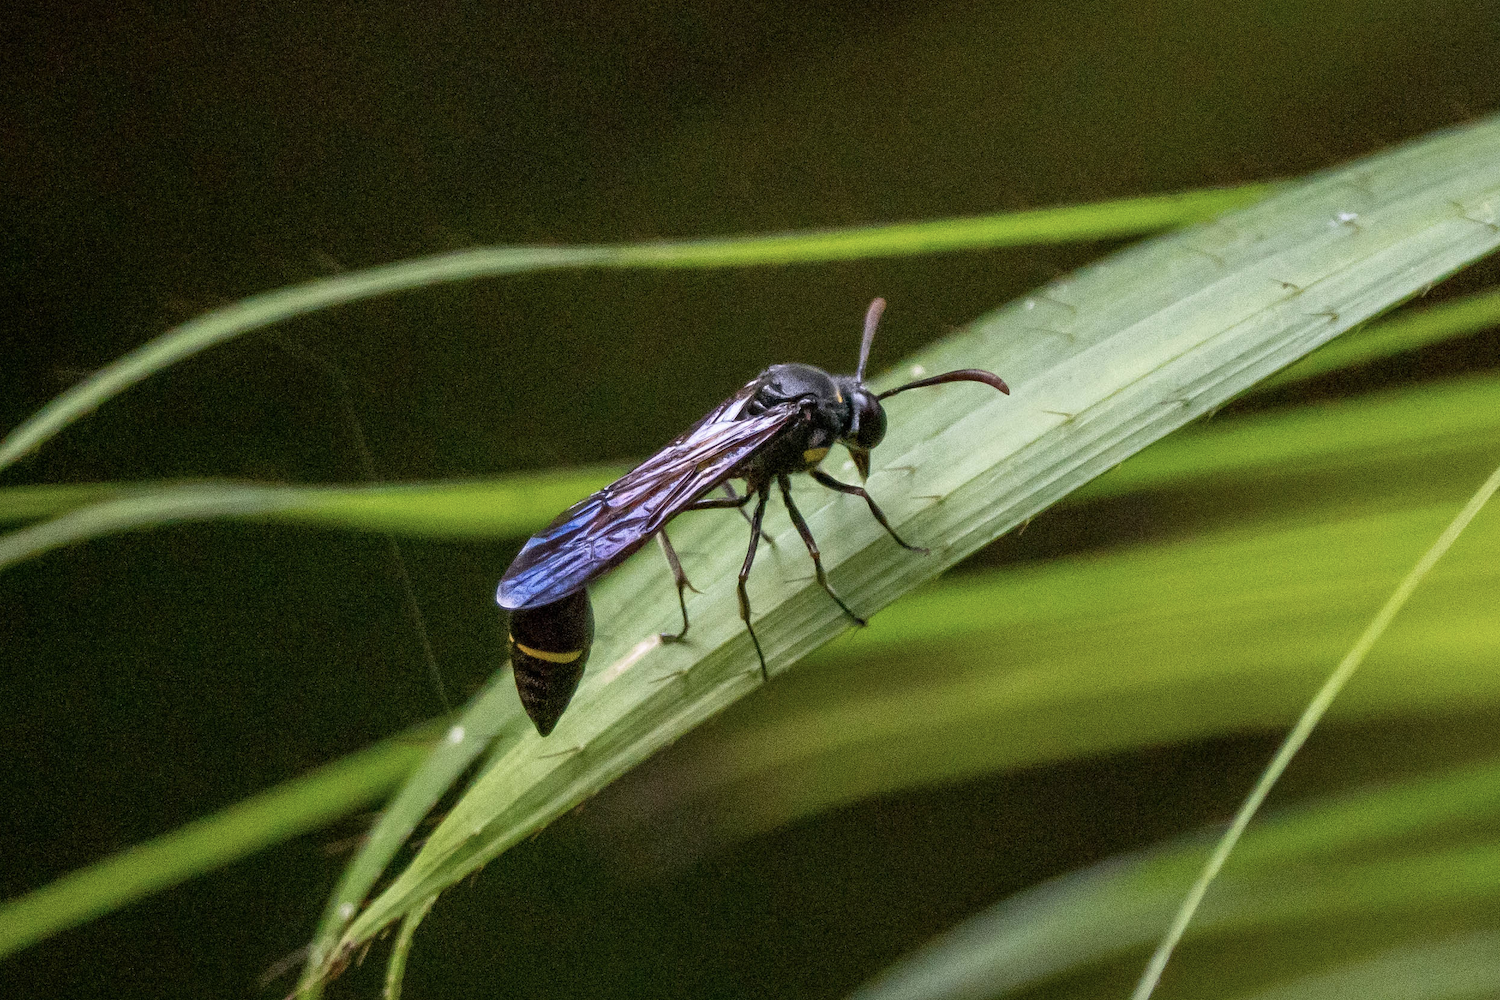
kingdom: Animalia
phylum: Arthropoda
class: Insecta
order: Hymenoptera
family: Vespidae
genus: Eustenogaster
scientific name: Eustenogaster nigra
